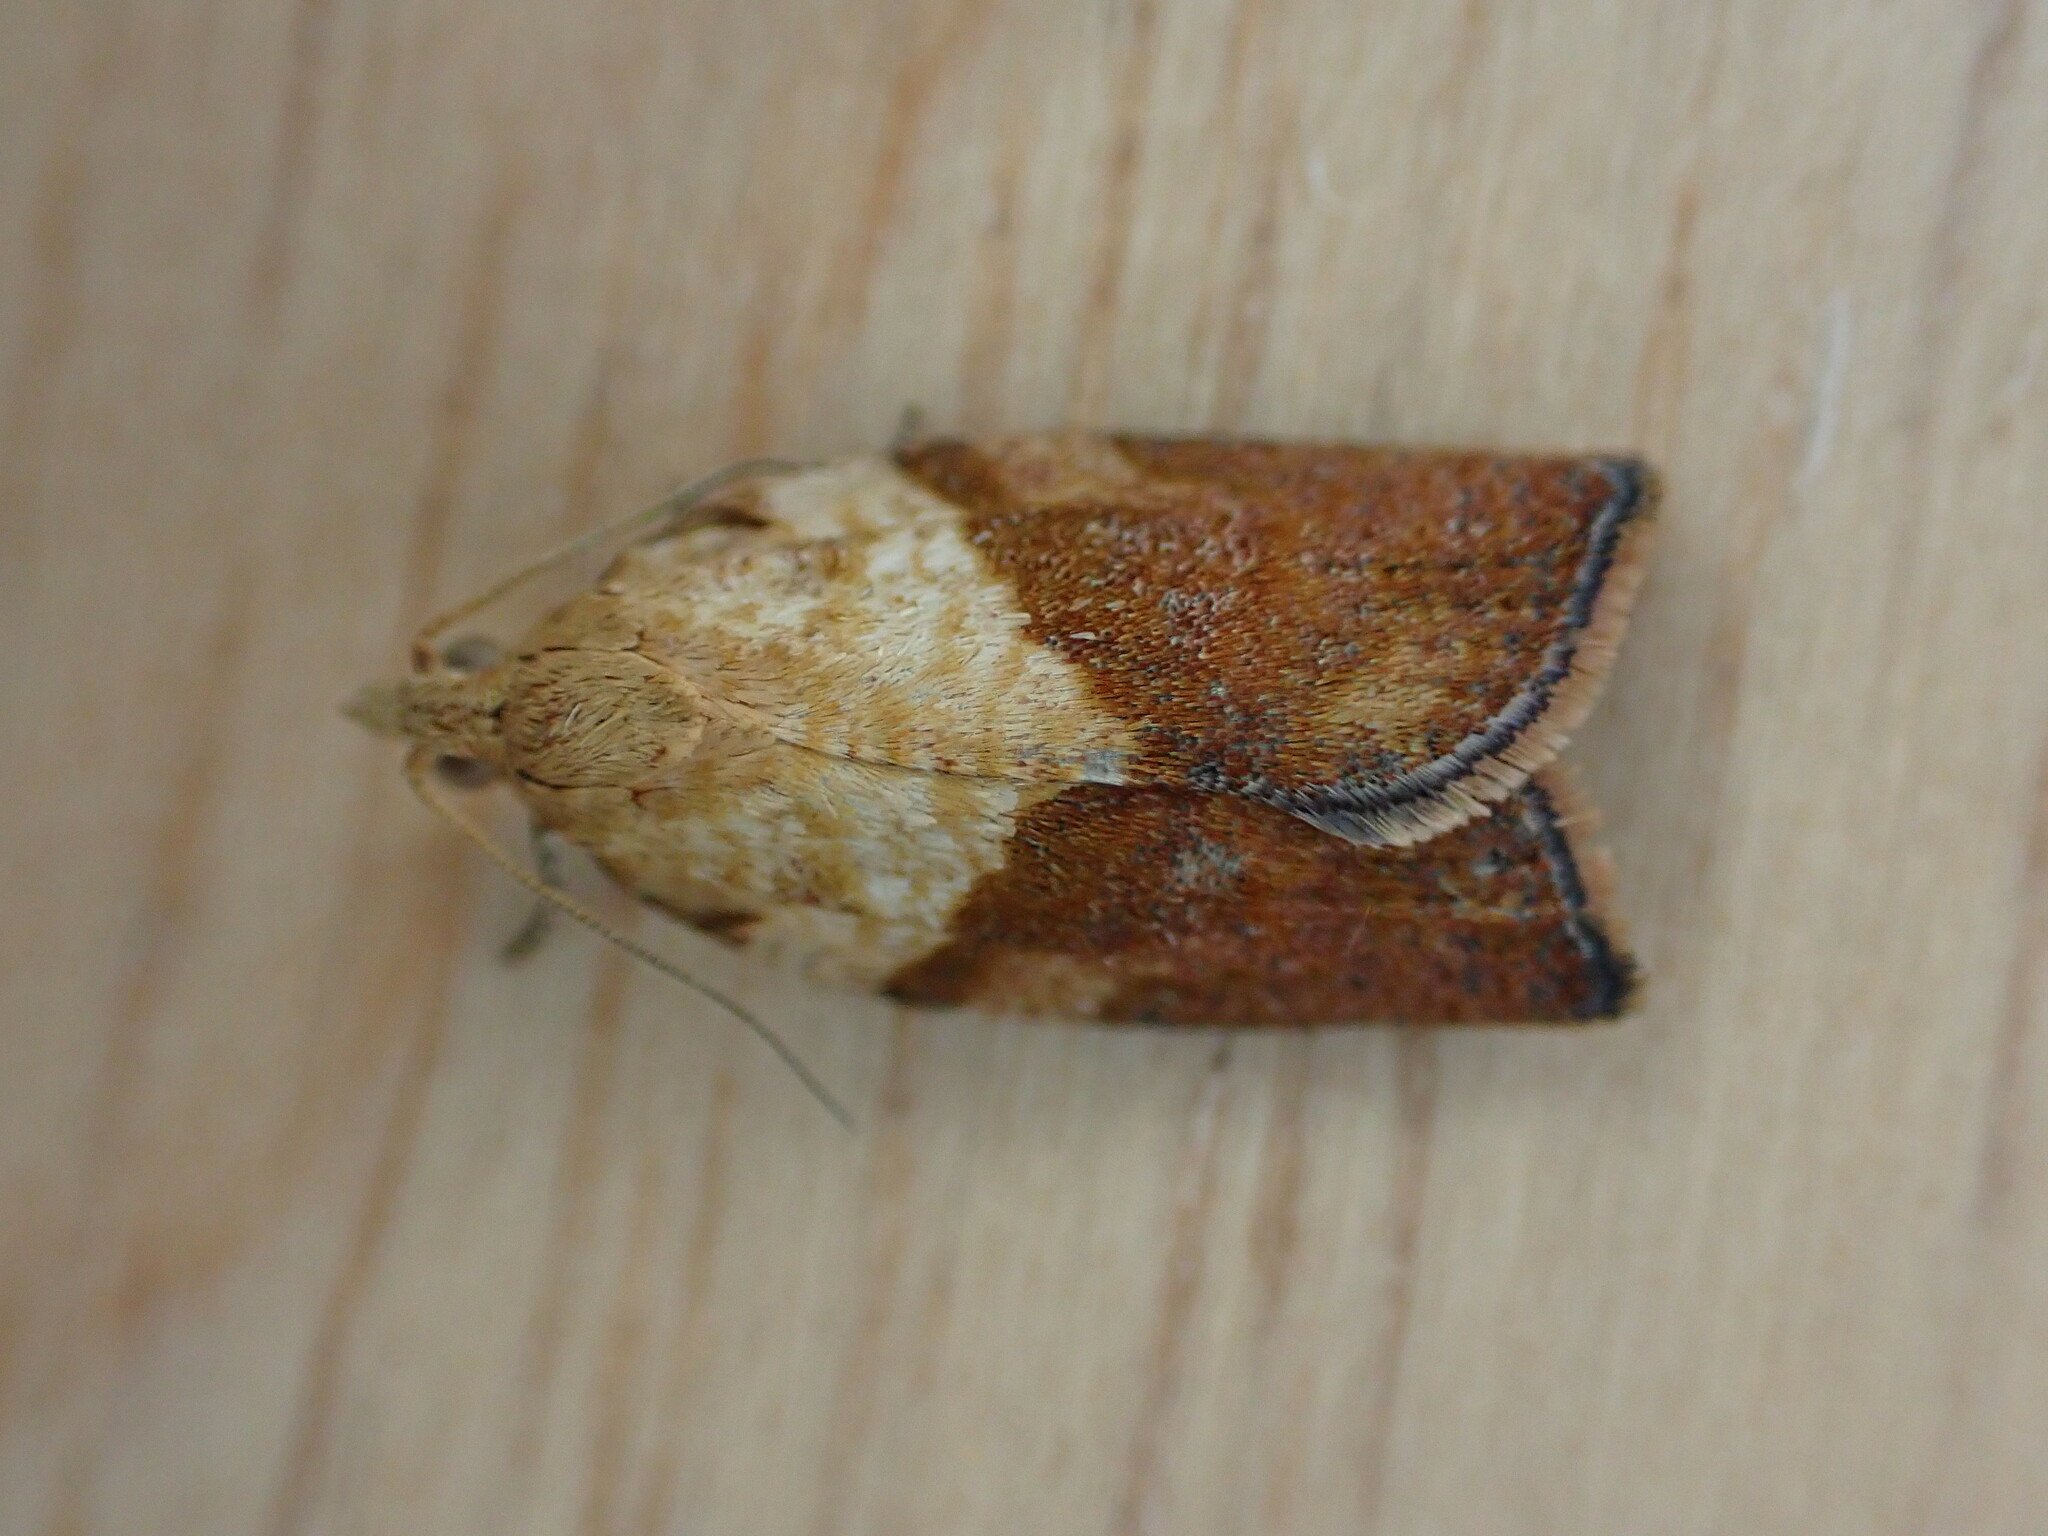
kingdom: Animalia
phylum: Arthropoda
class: Insecta
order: Lepidoptera
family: Tortricidae
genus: Epiphyas
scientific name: Epiphyas postvittana
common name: Light brown apple moth
